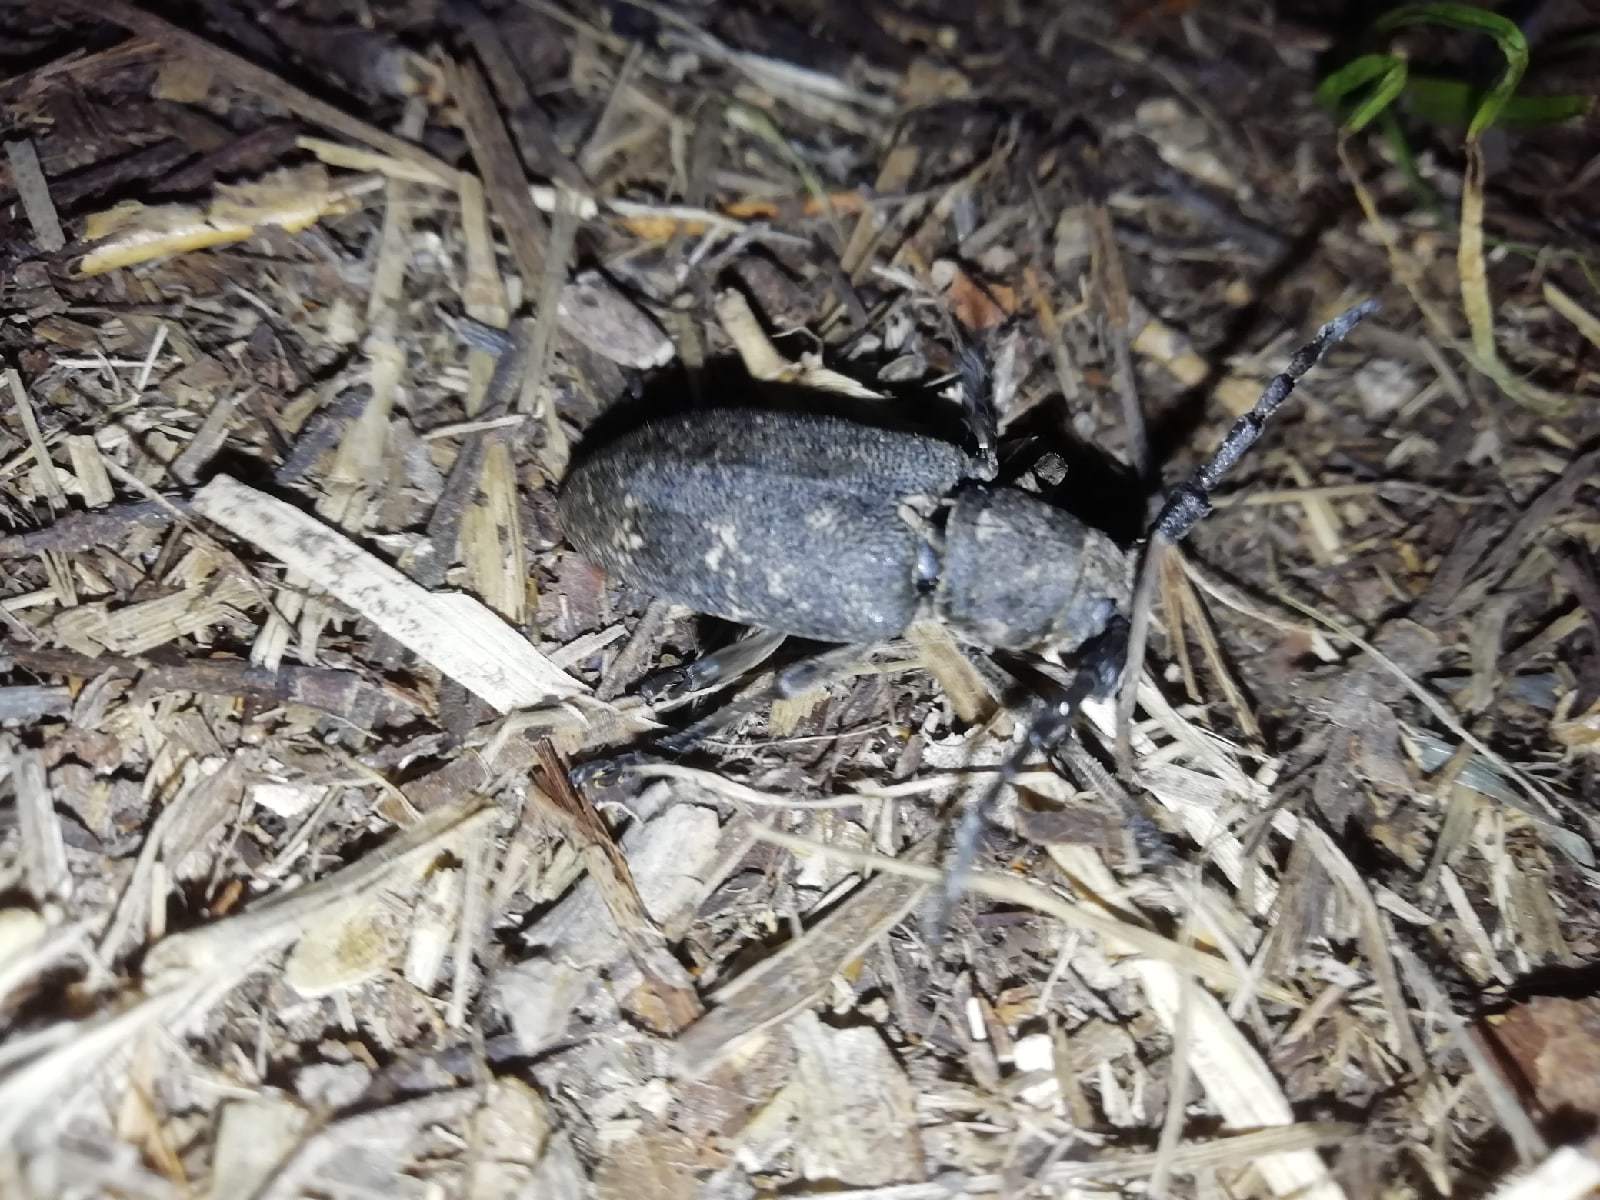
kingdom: Animalia
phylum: Arthropoda
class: Insecta
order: Coleoptera
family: Cerambycidae
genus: Lamia
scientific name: Lamia textor
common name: Weaver beetle
